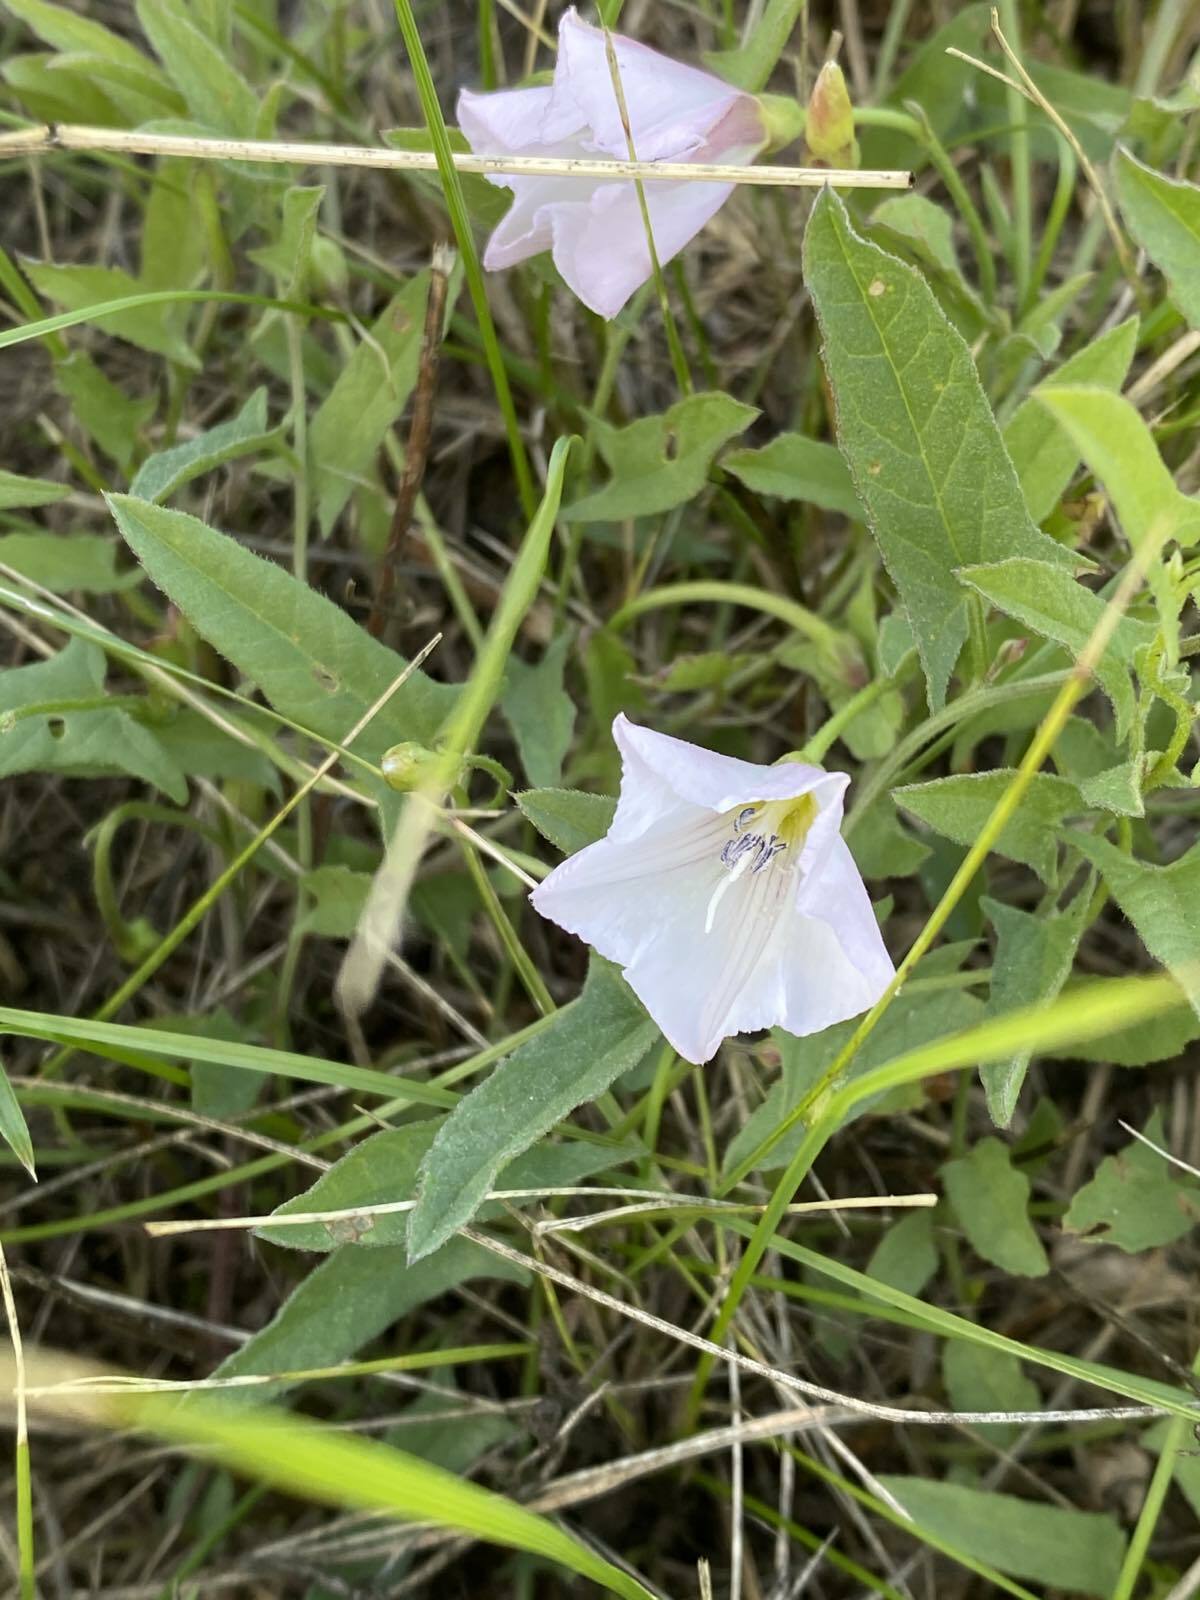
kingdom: Plantae
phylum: Tracheophyta
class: Magnoliopsida
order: Solanales
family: Convolvulaceae
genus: Convolvulus
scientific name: Convolvulus arvensis
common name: Field bindweed
